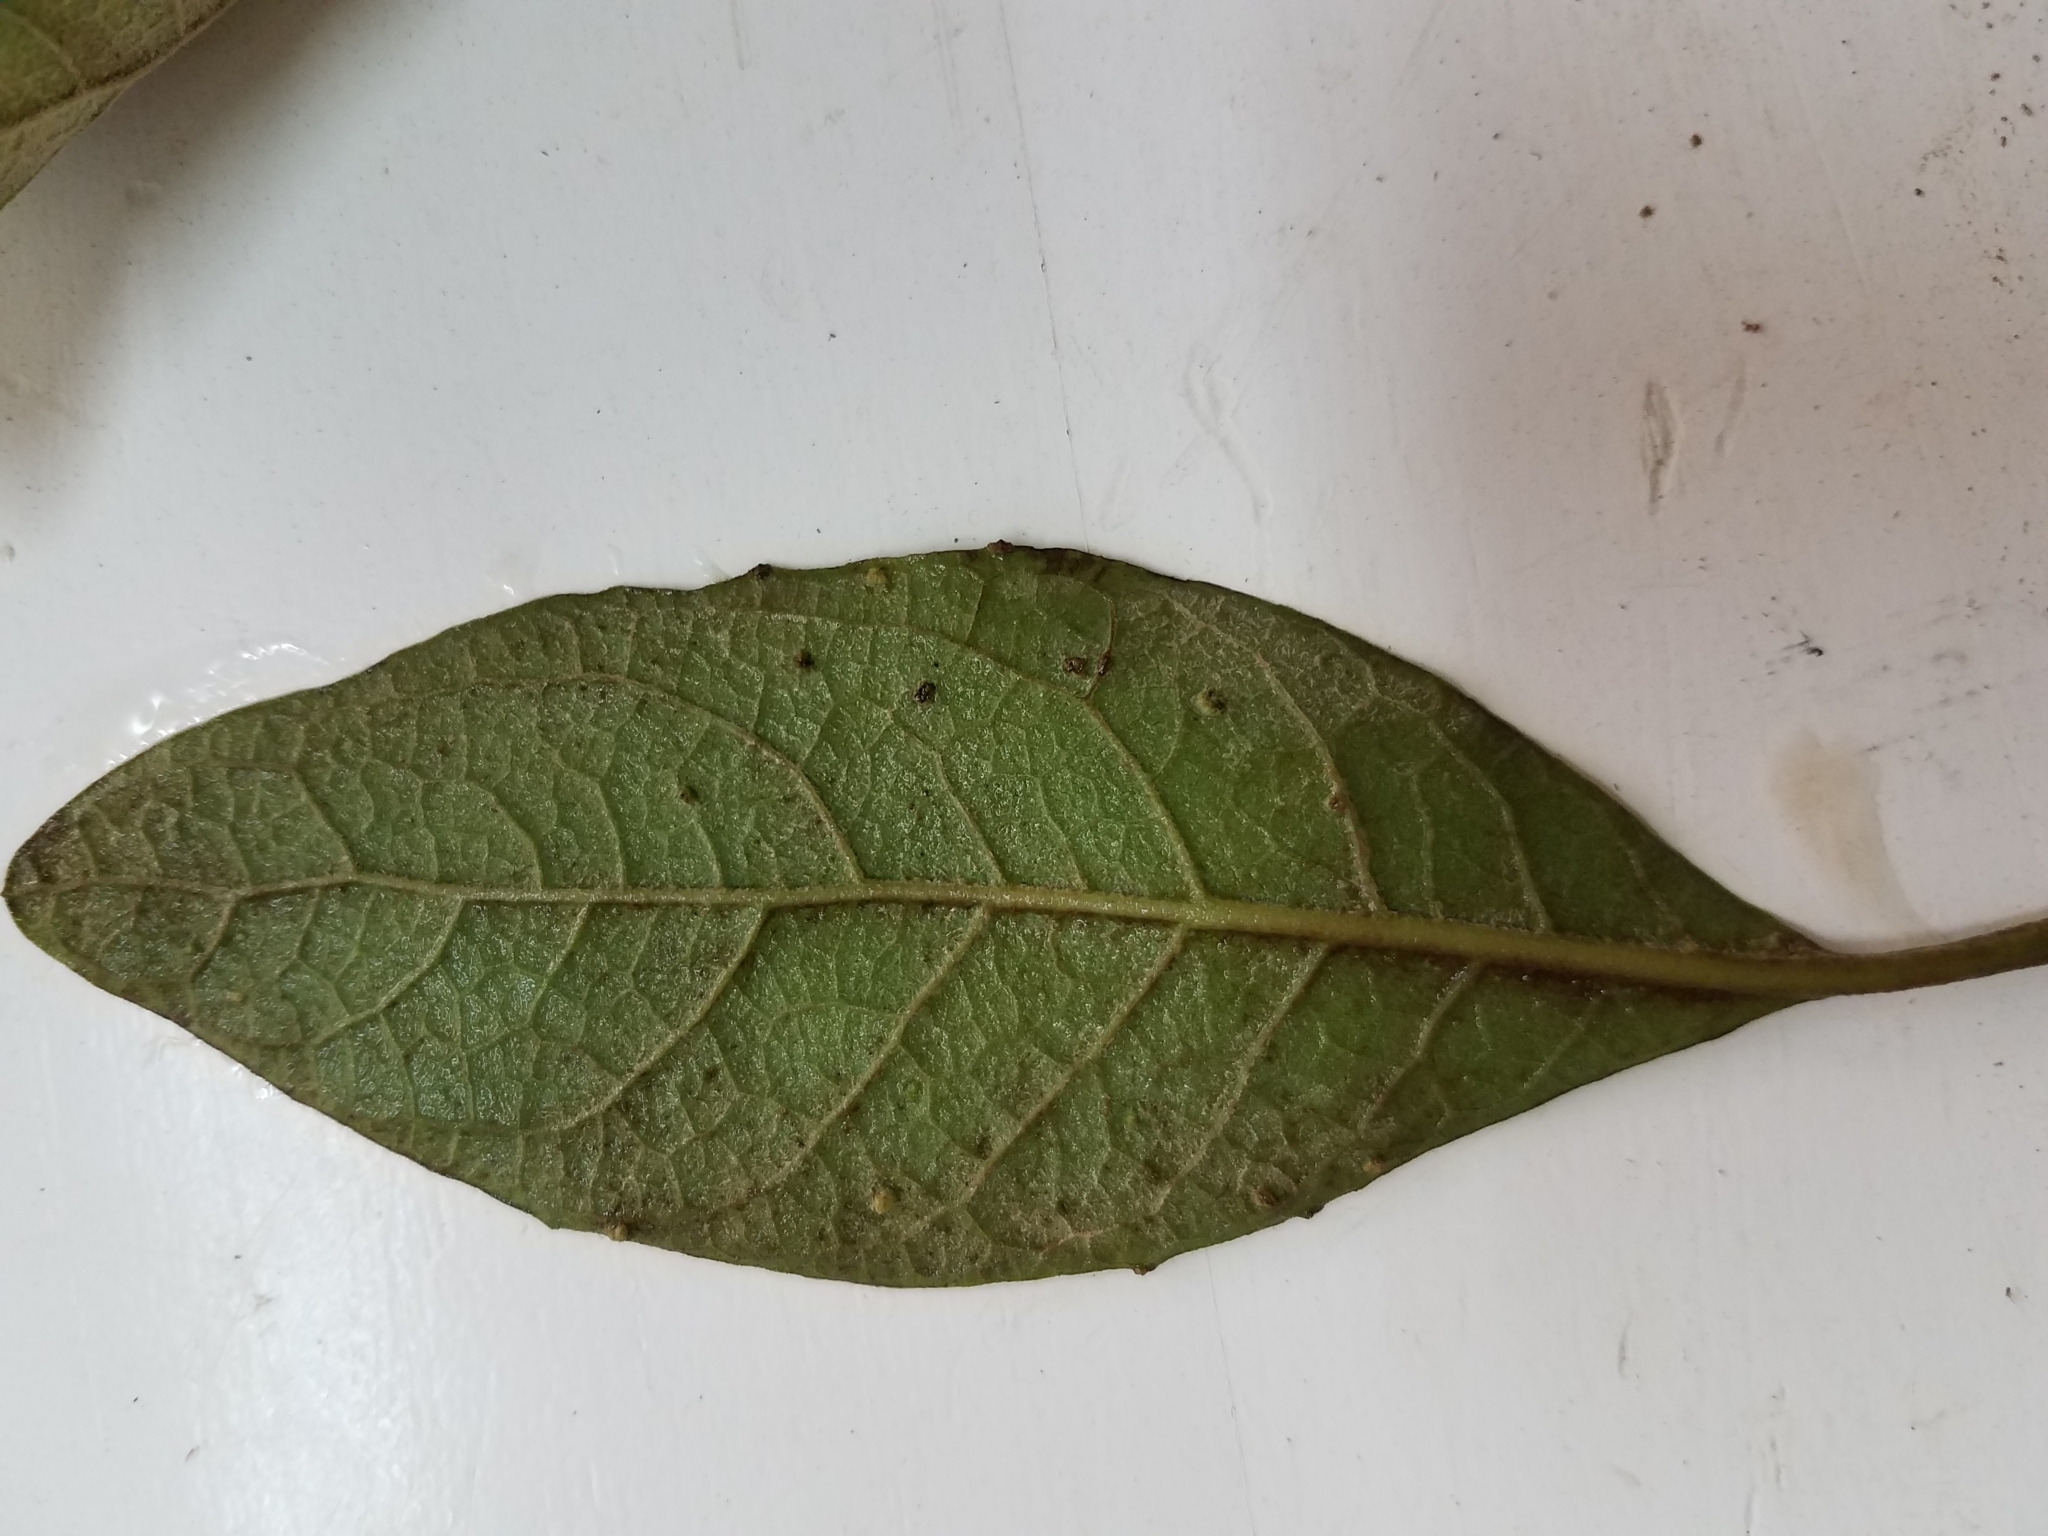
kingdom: Plantae
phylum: Tracheophyta
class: Magnoliopsida
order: Asterales
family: Asteraceae
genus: Pluchea
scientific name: Pluchea carolinensis
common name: Marsh fleabane
